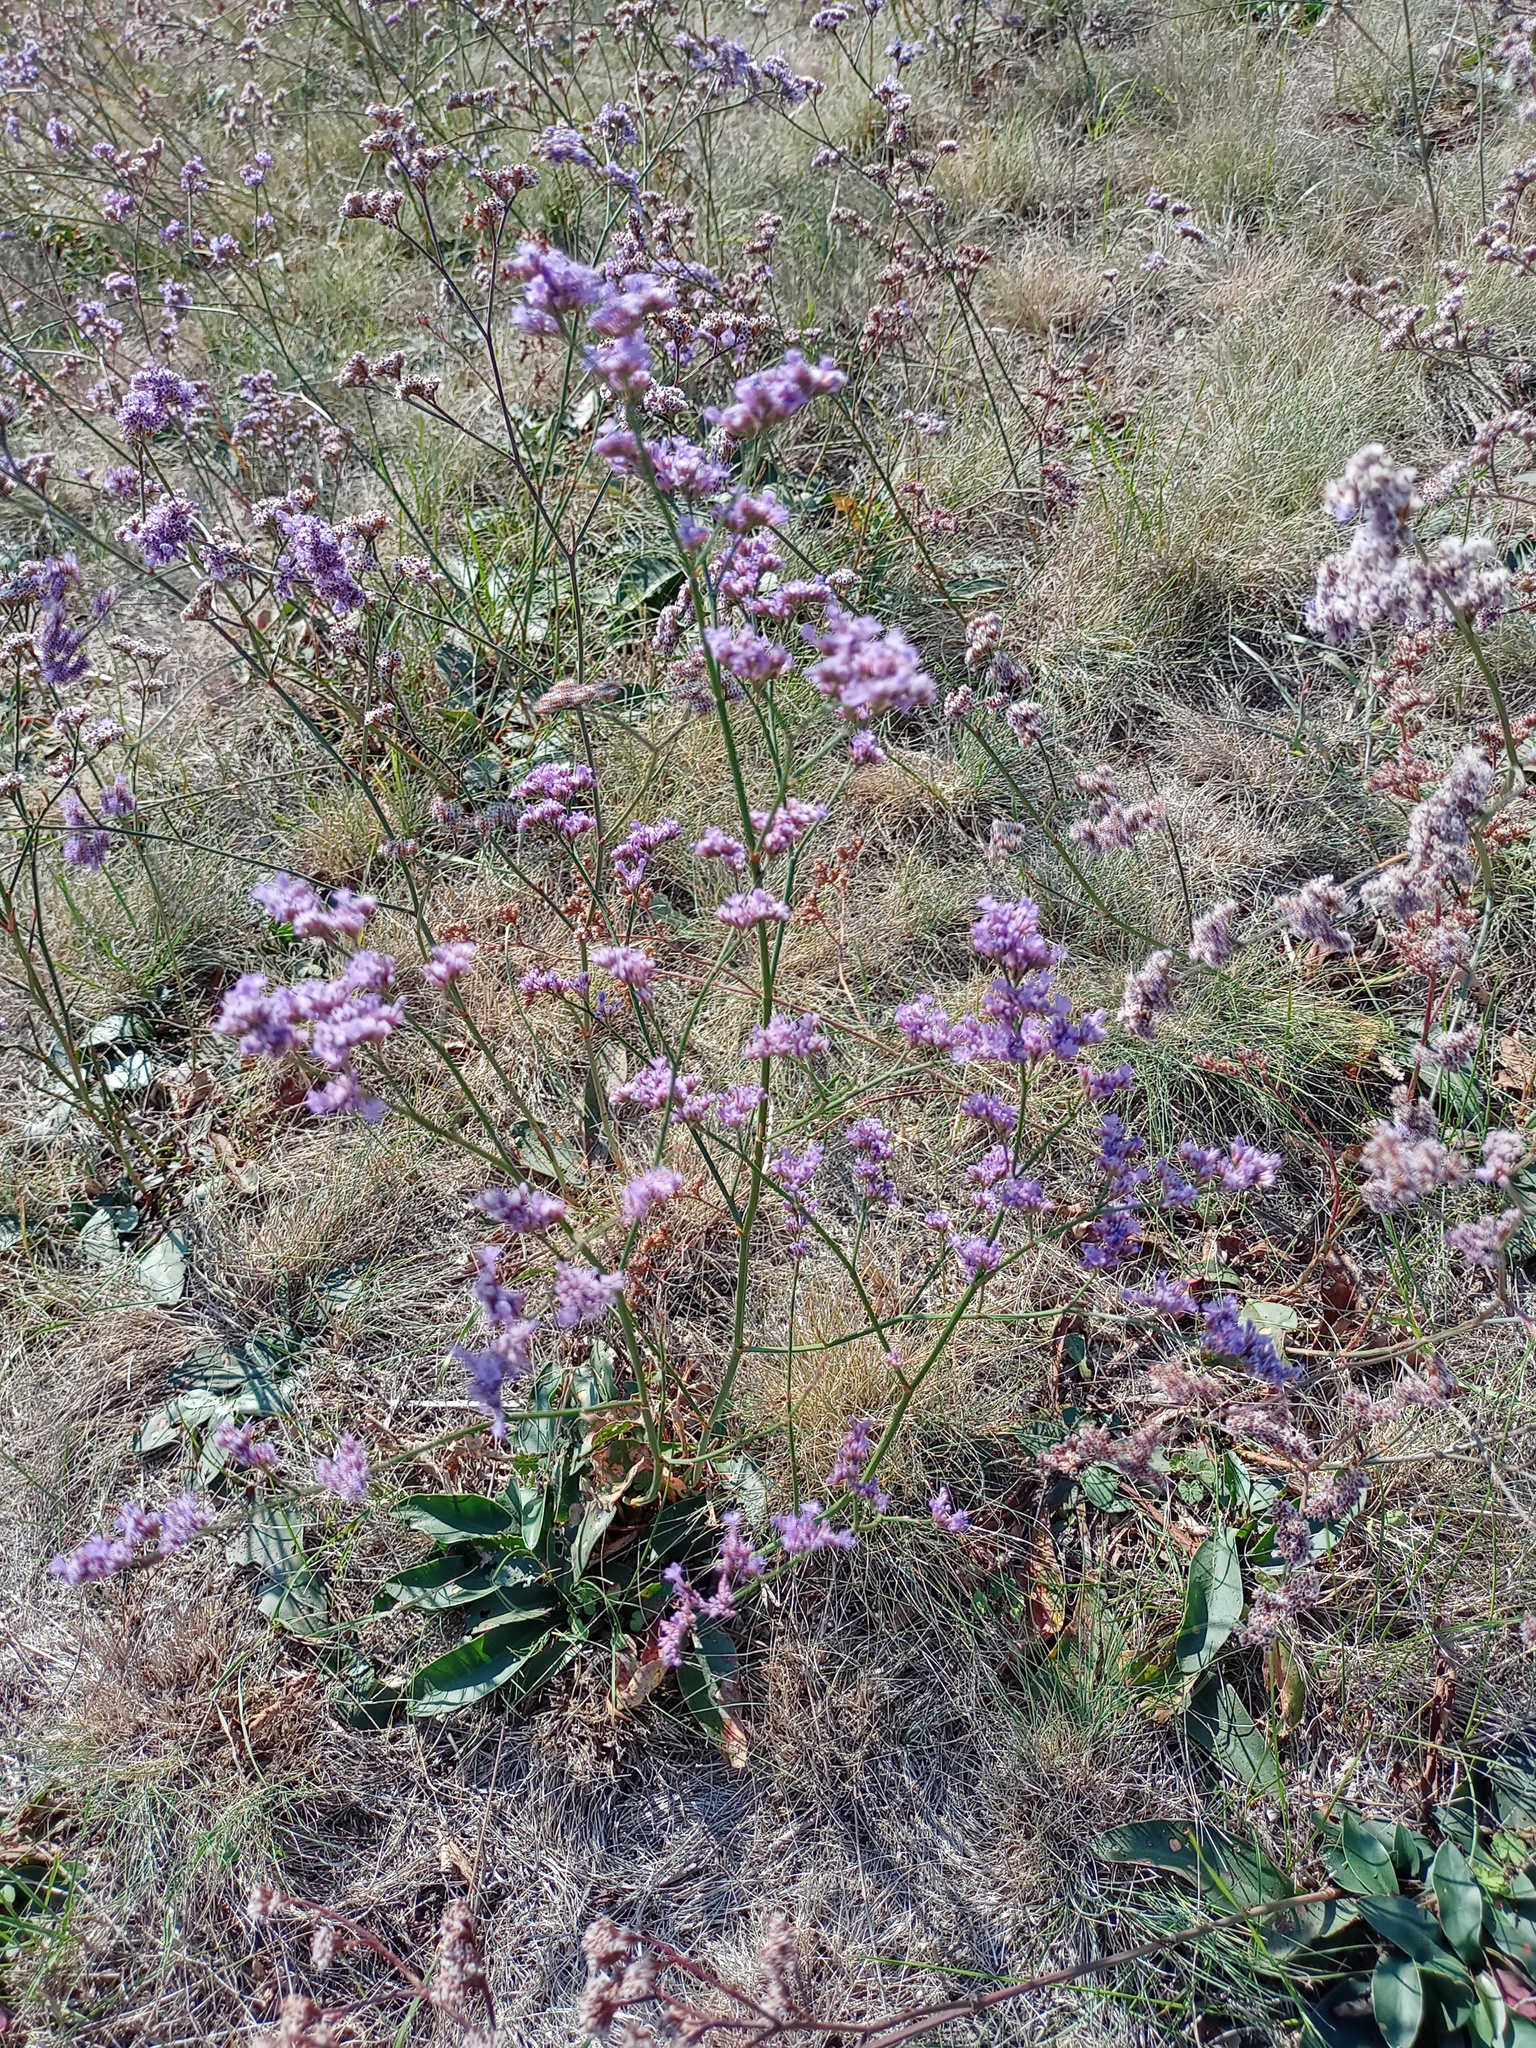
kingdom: Plantae
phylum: Tracheophyta
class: Magnoliopsida
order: Caryophyllales
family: Plumbaginaceae
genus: Limonium
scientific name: Limonium gmelini
